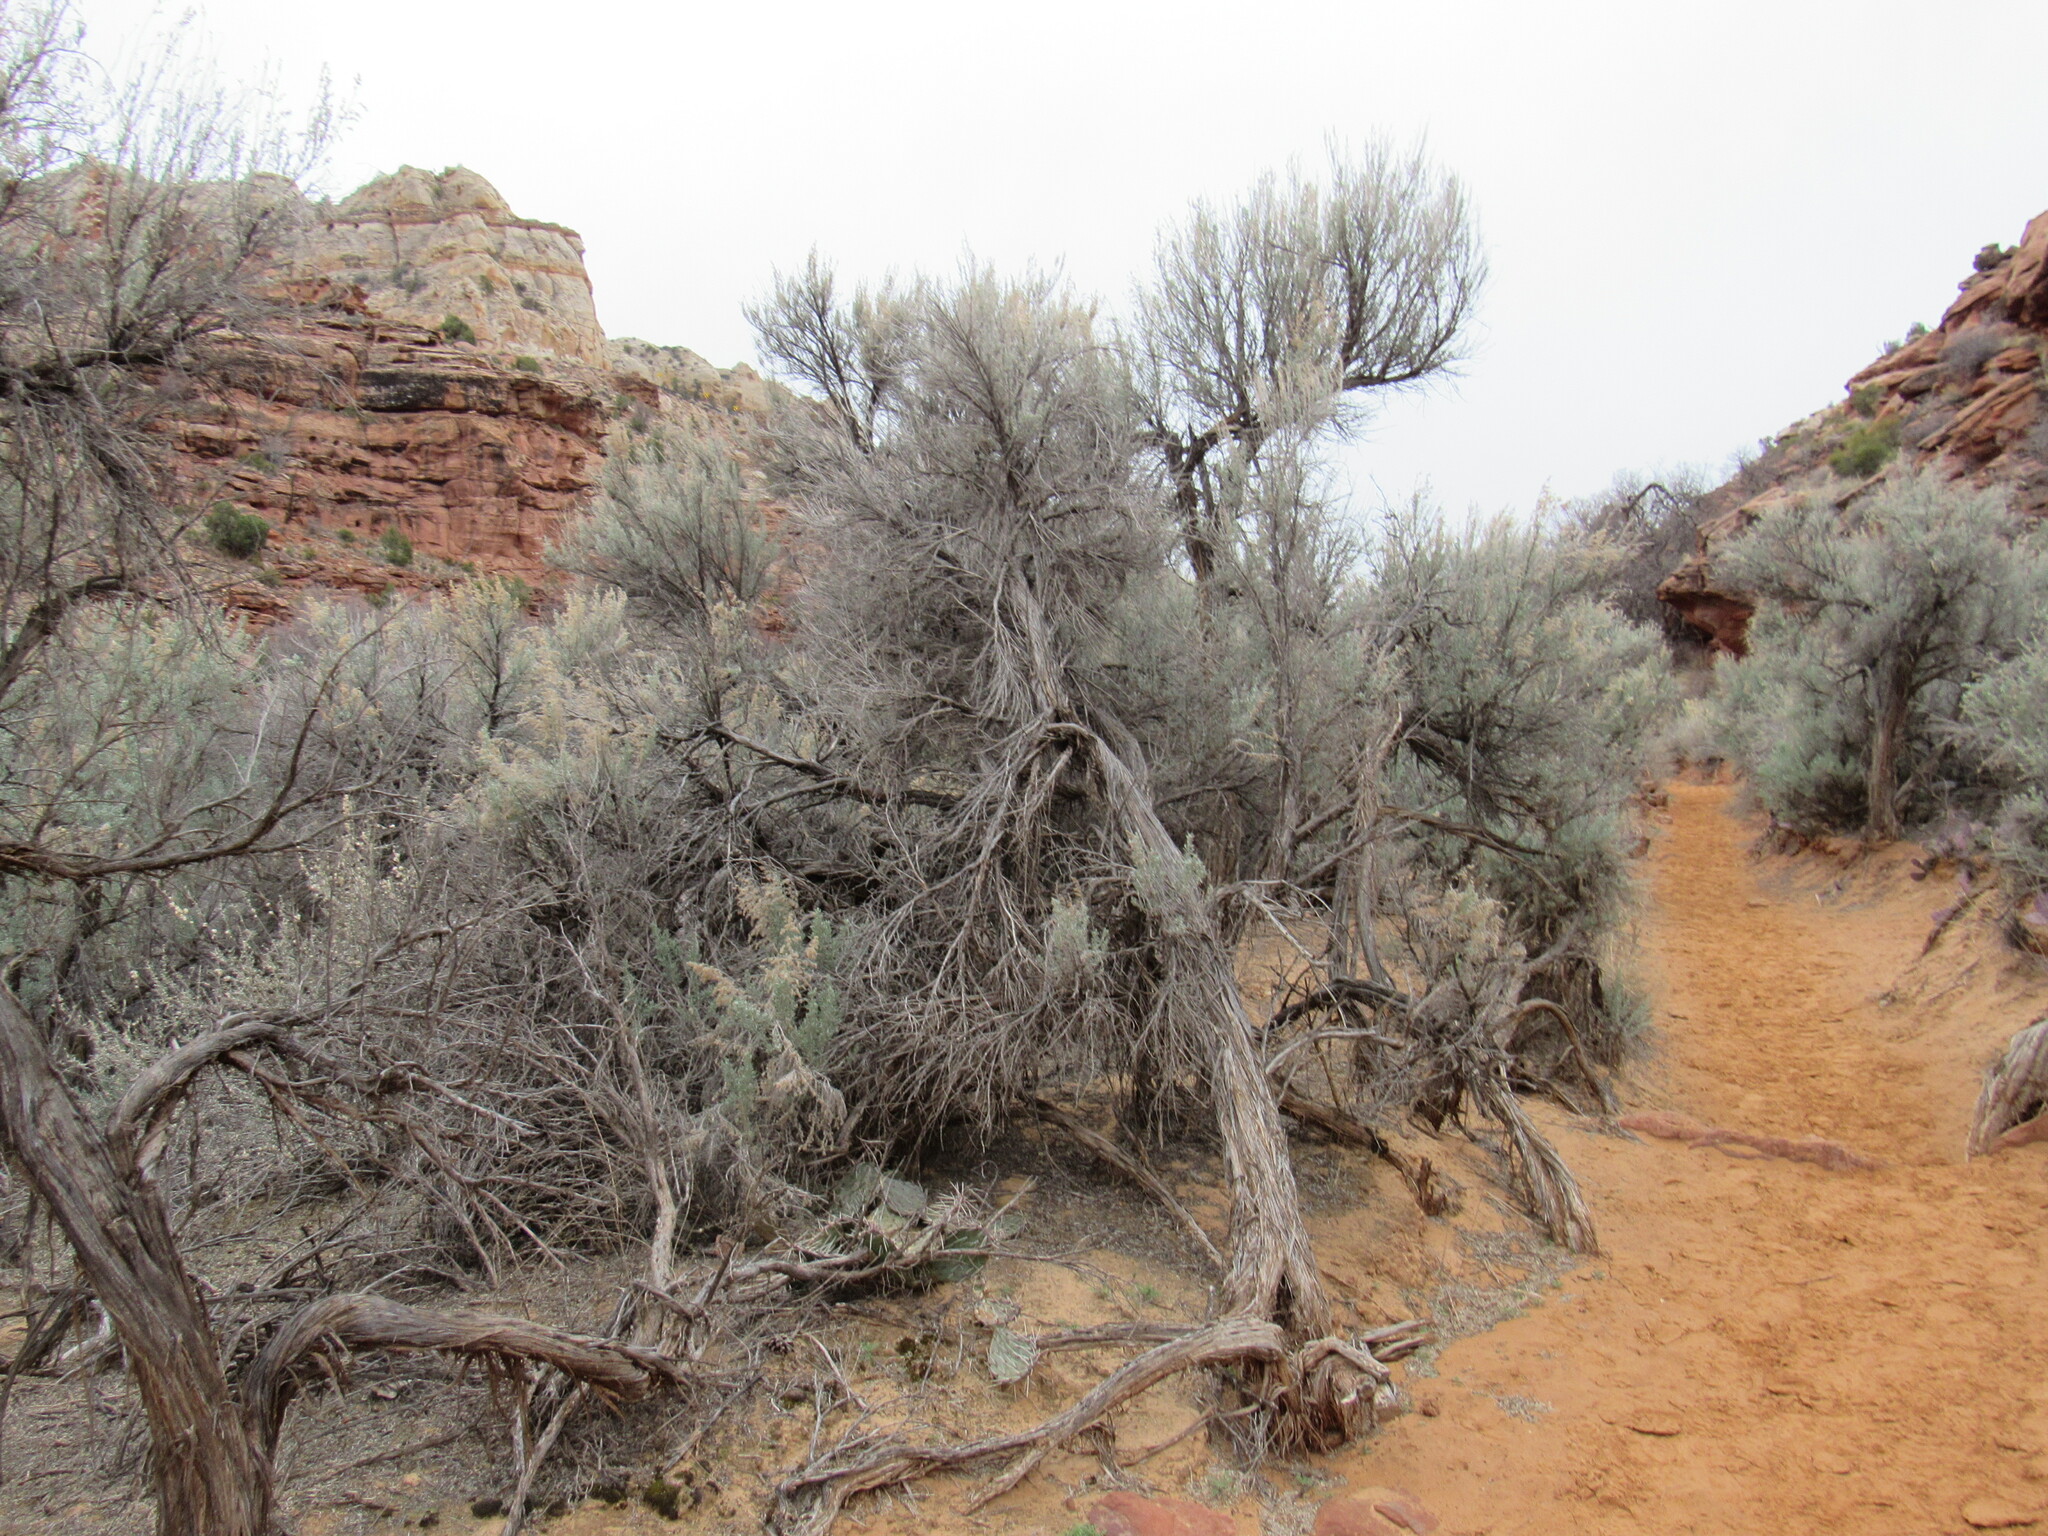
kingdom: Plantae
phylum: Tracheophyta
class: Magnoliopsida
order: Asterales
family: Asteraceae
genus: Artemisia
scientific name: Artemisia tridentata
